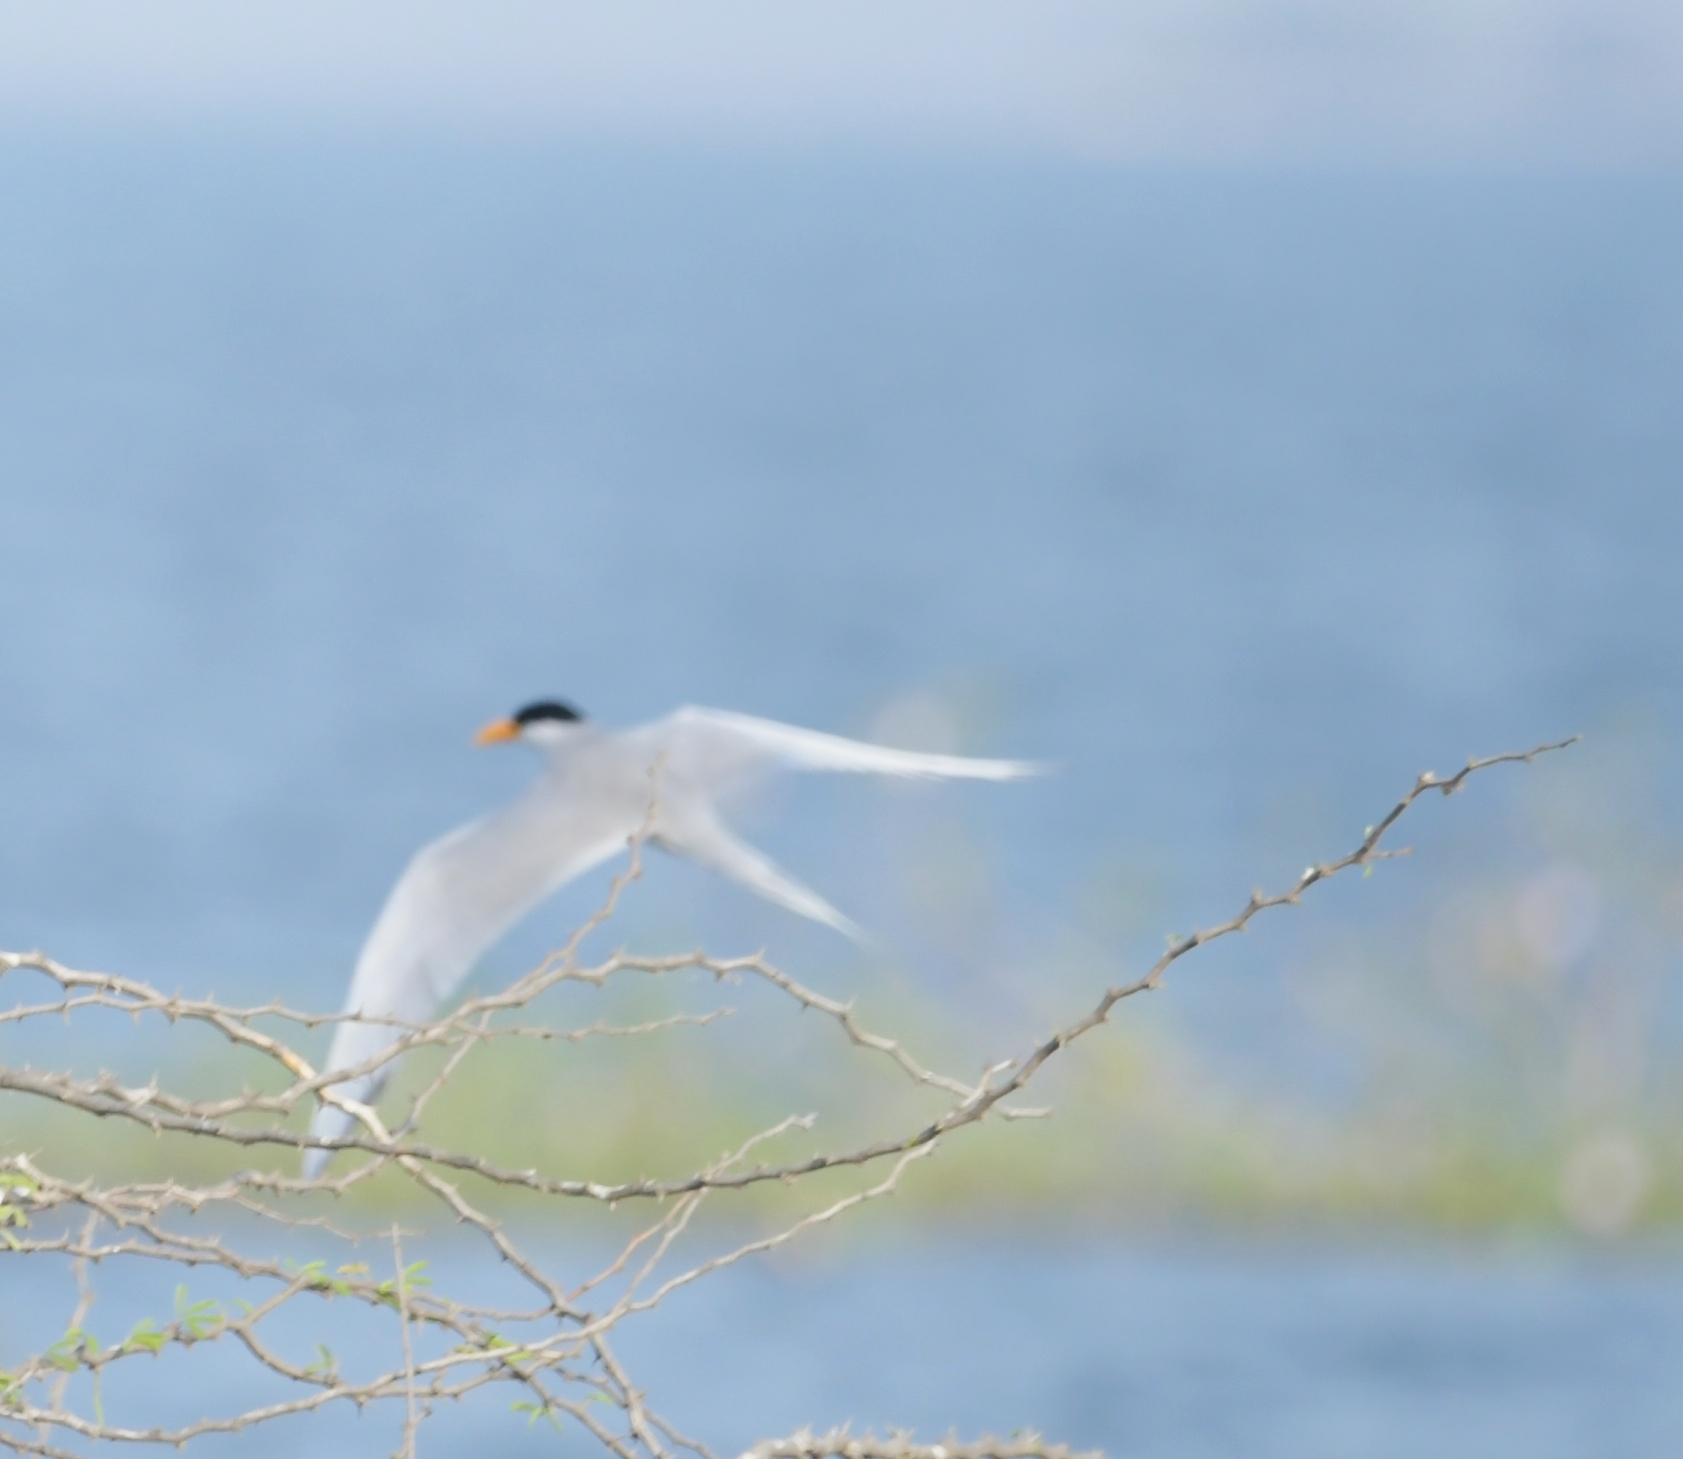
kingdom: Animalia
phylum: Chordata
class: Aves
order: Charadriiformes
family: Laridae
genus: Sterna
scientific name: Sterna aurantia
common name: River tern
